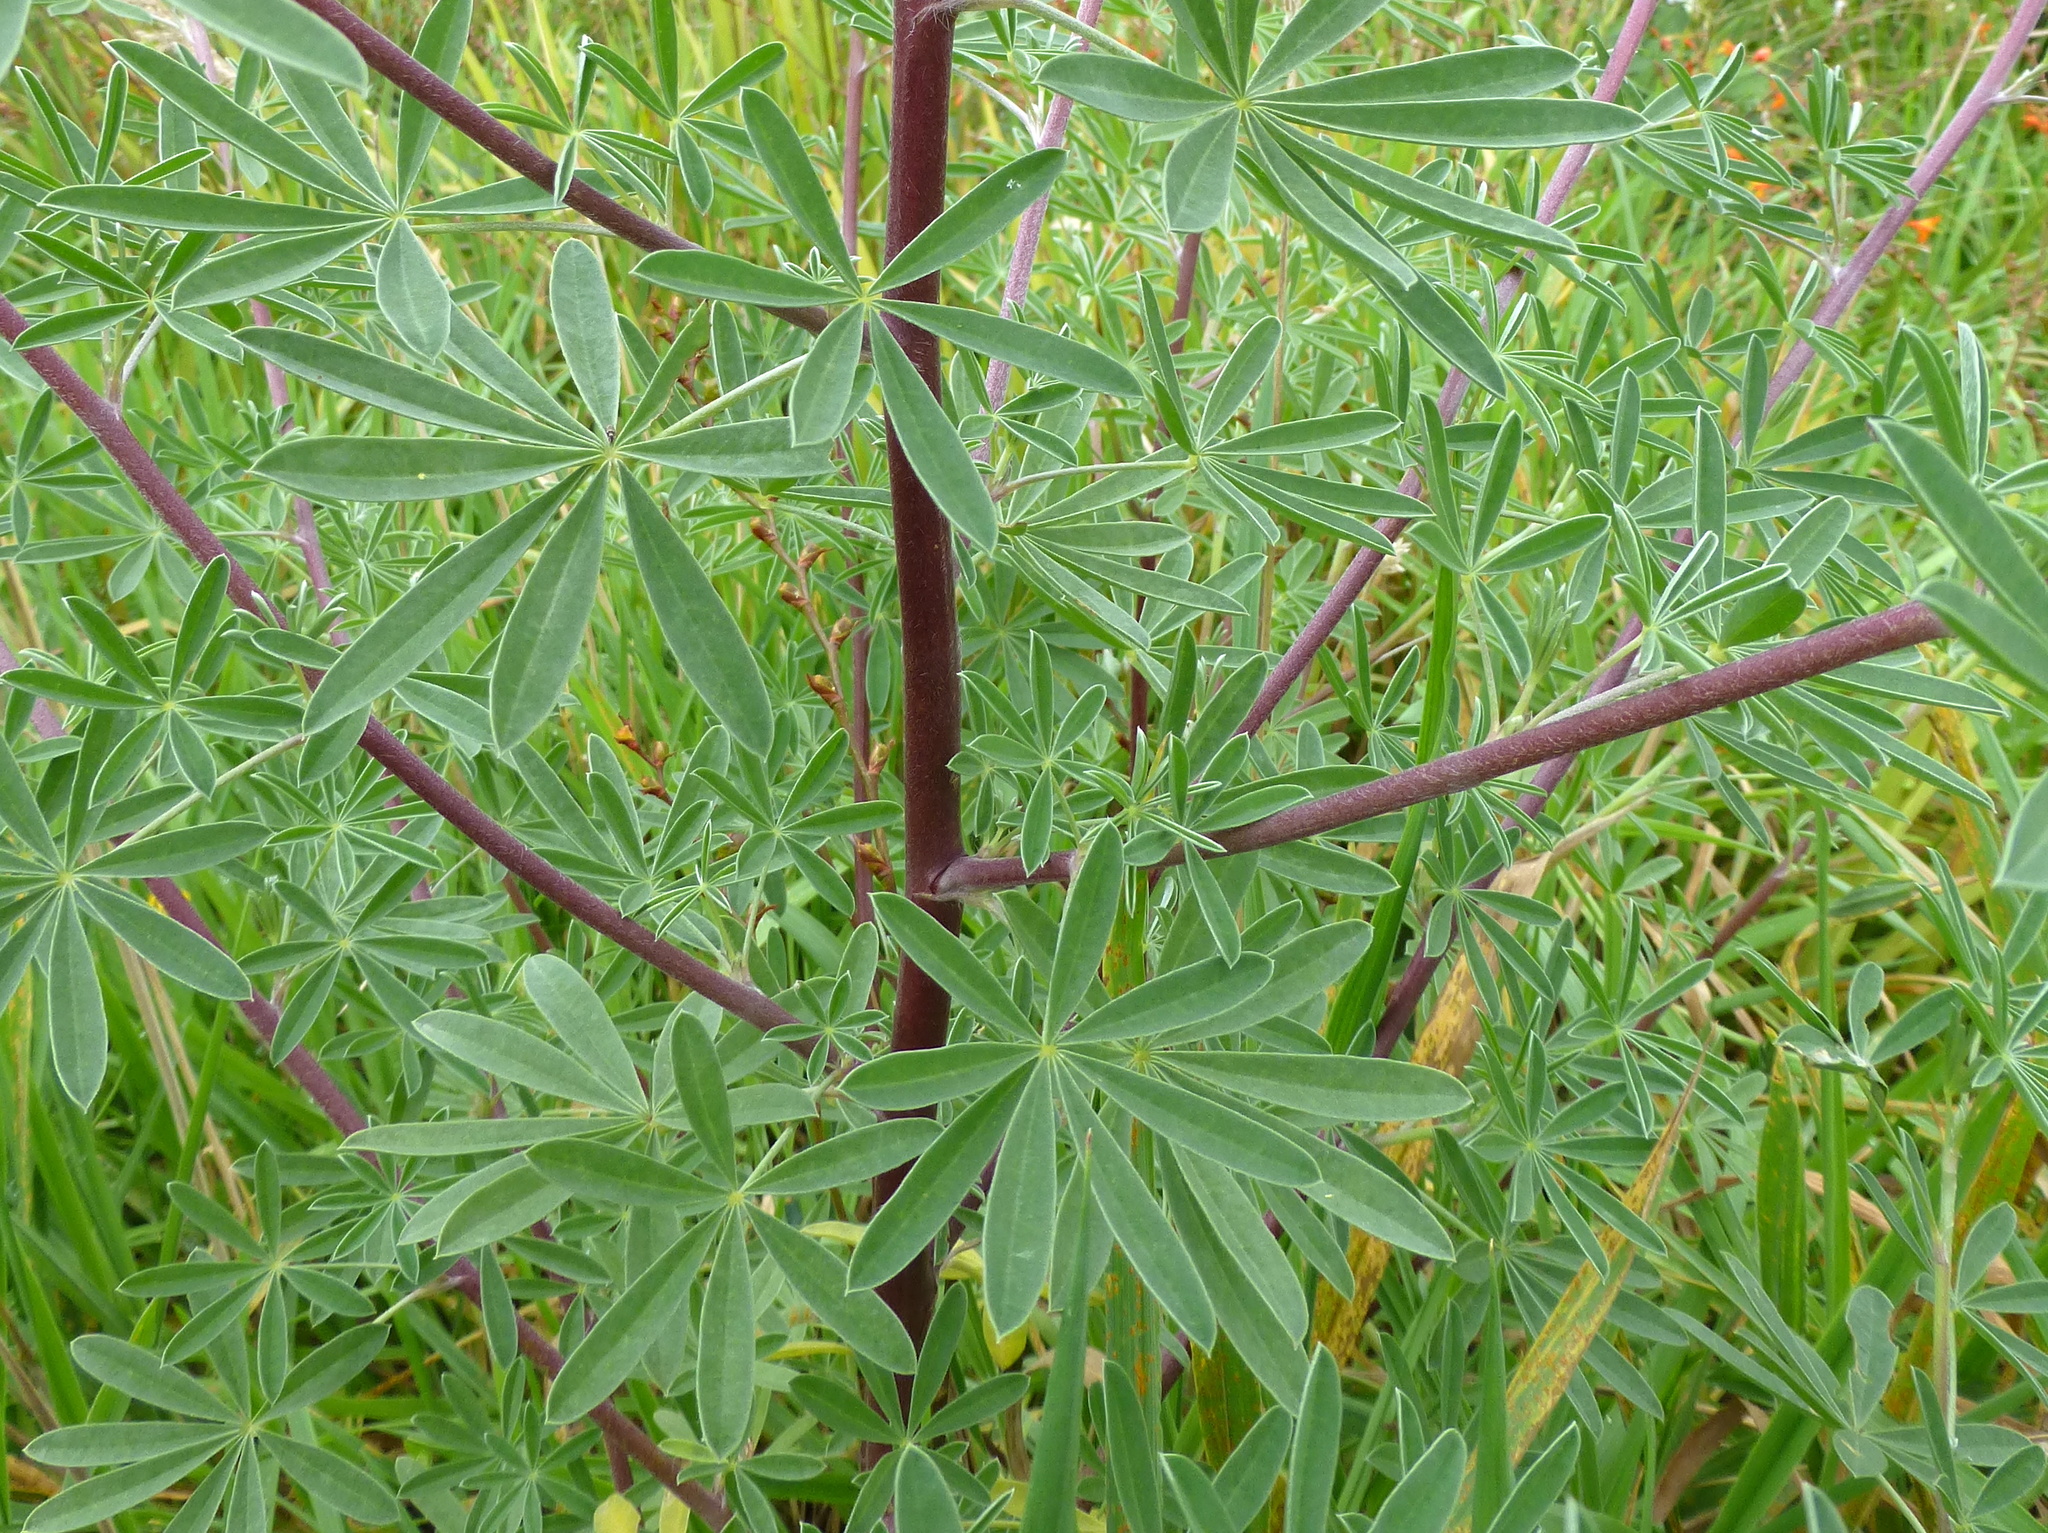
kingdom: Plantae
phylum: Tracheophyta
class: Magnoliopsida
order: Fabales
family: Fabaceae
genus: Lupinus
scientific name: Lupinus arboreus
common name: Yellow bush lupine
